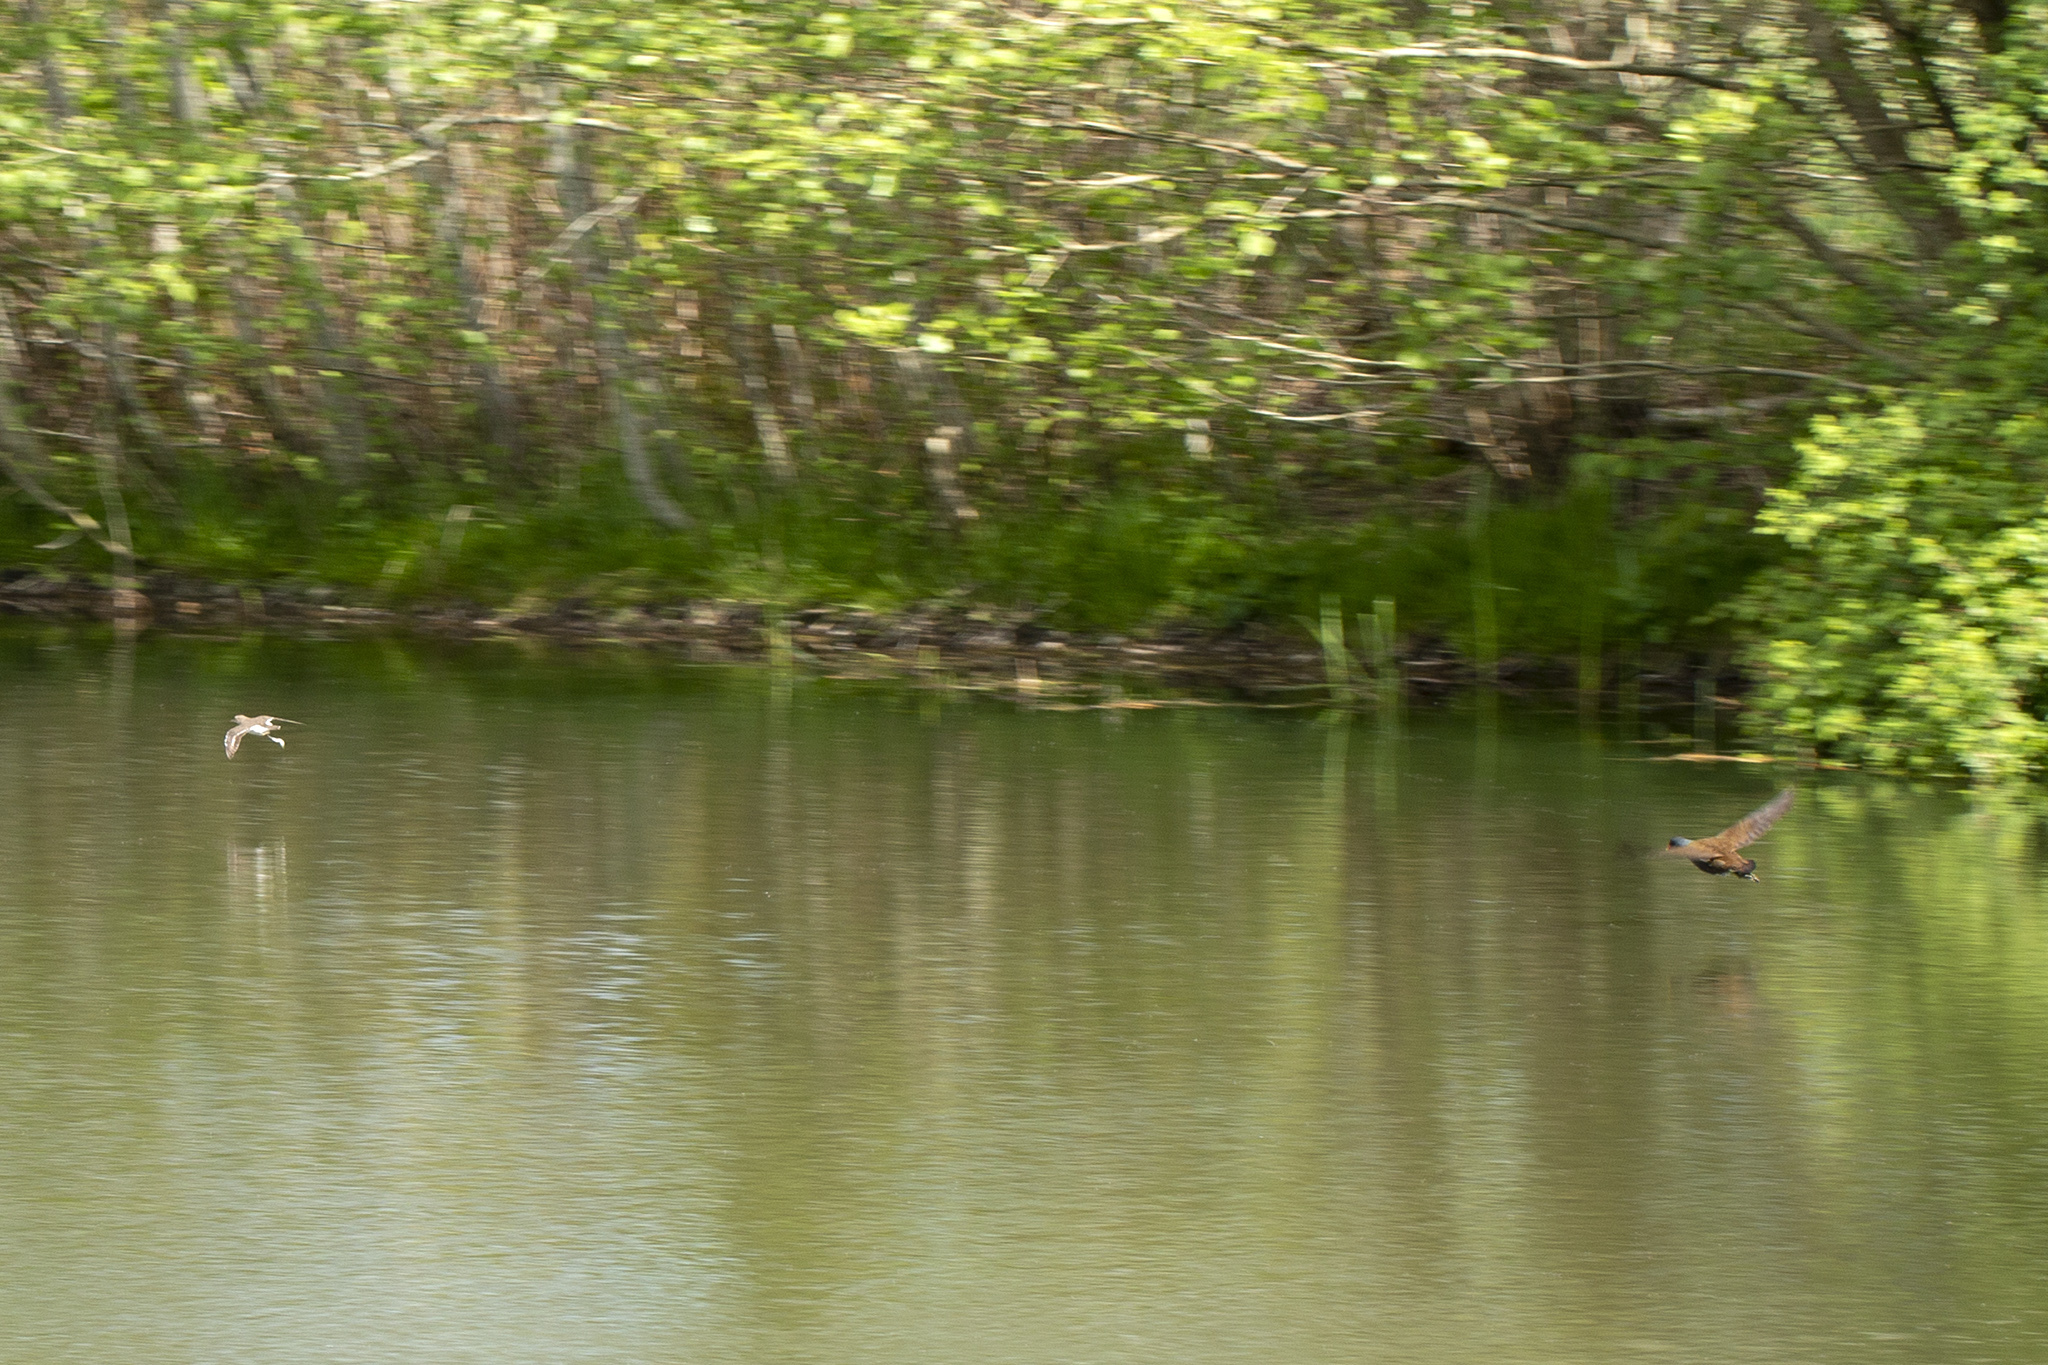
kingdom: Animalia
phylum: Chordata
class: Aves
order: Charadriiformes
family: Scolopacidae
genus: Actitis
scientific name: Actitis hypoleucos
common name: Common sandpiper
